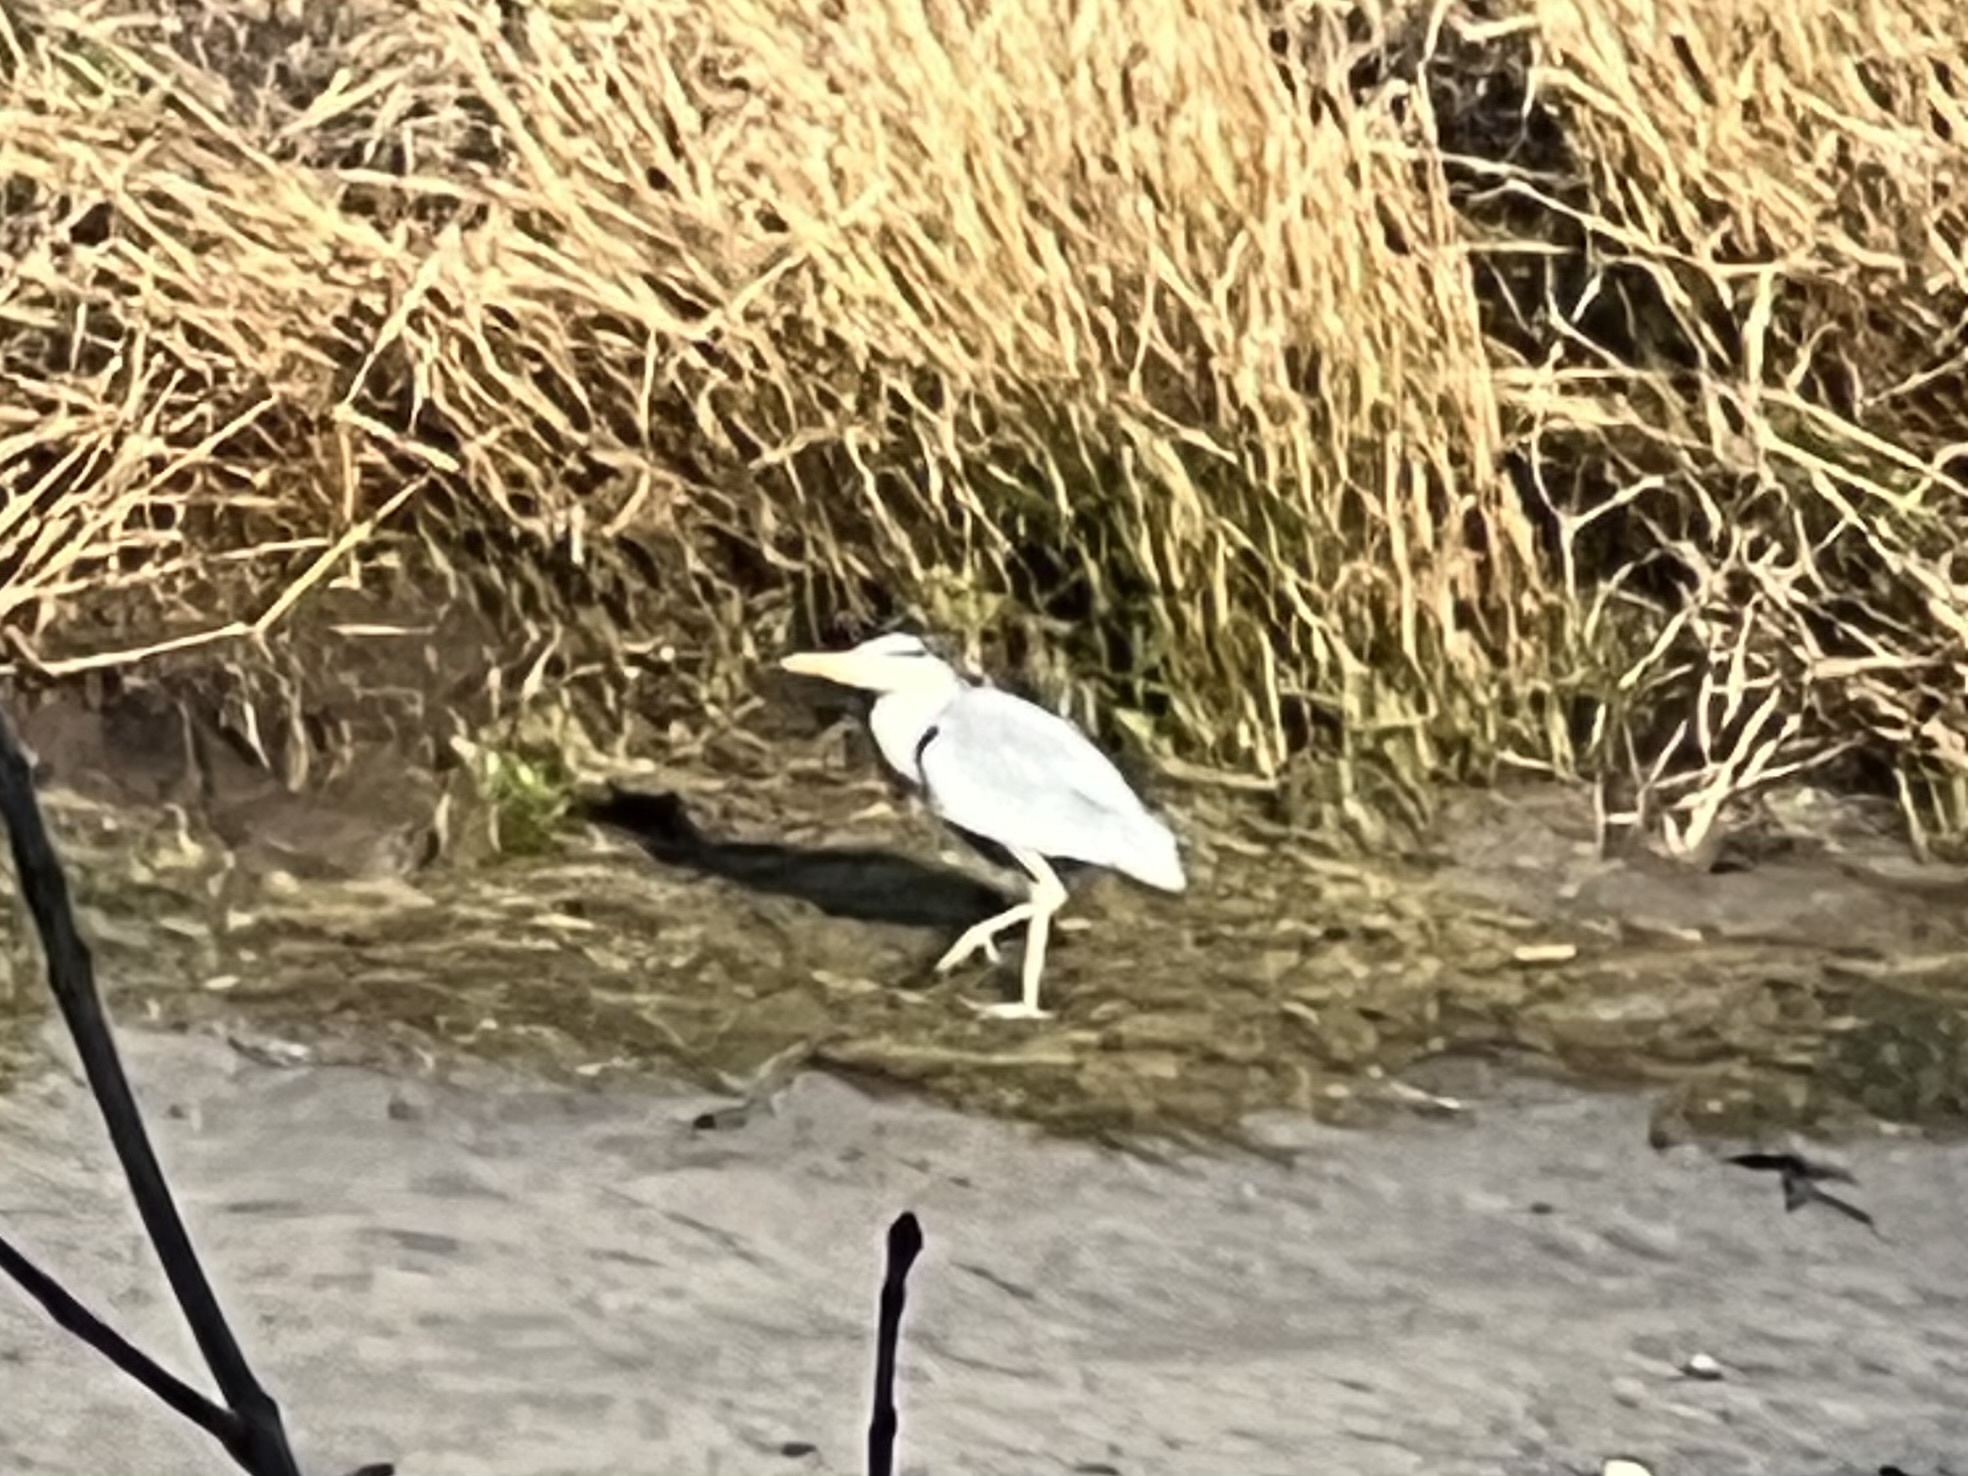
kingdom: Animalia
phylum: Chordata
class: Aves
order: Pelecaniformes
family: Ardeidae
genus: Ardea
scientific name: Ardea cinerea
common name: Grey heron
